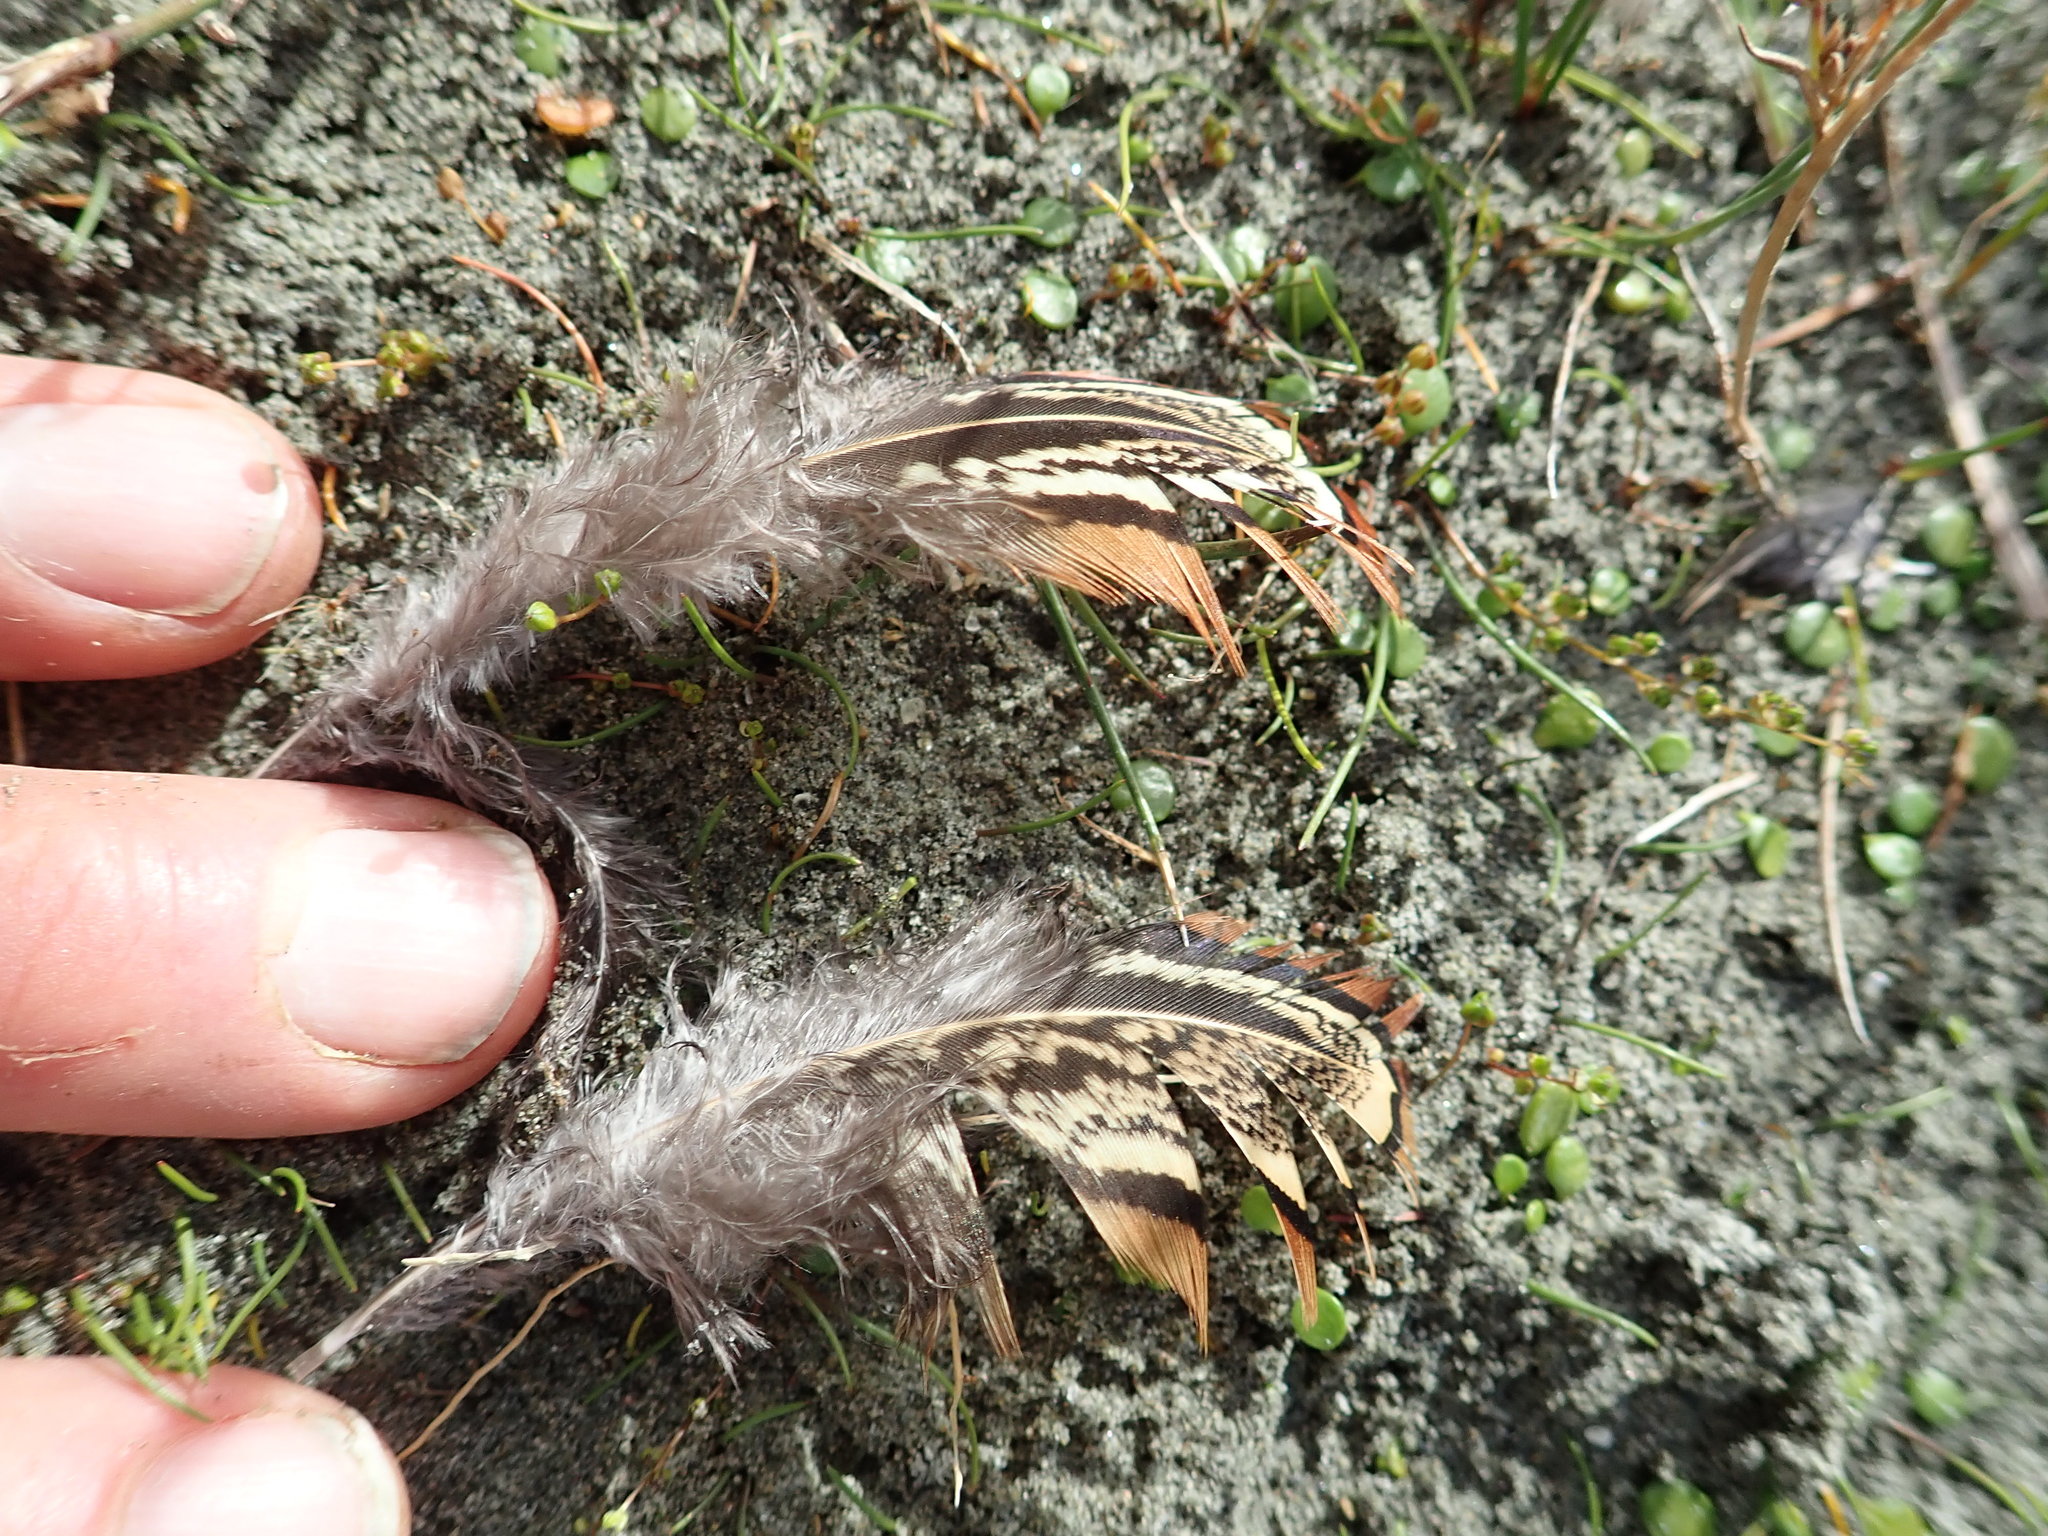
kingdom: Animalia
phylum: Chordata
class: Aves
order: Galliformes
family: Phasianidae
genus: Phasianus
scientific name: Phasianus colchicus
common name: Common pheasant
